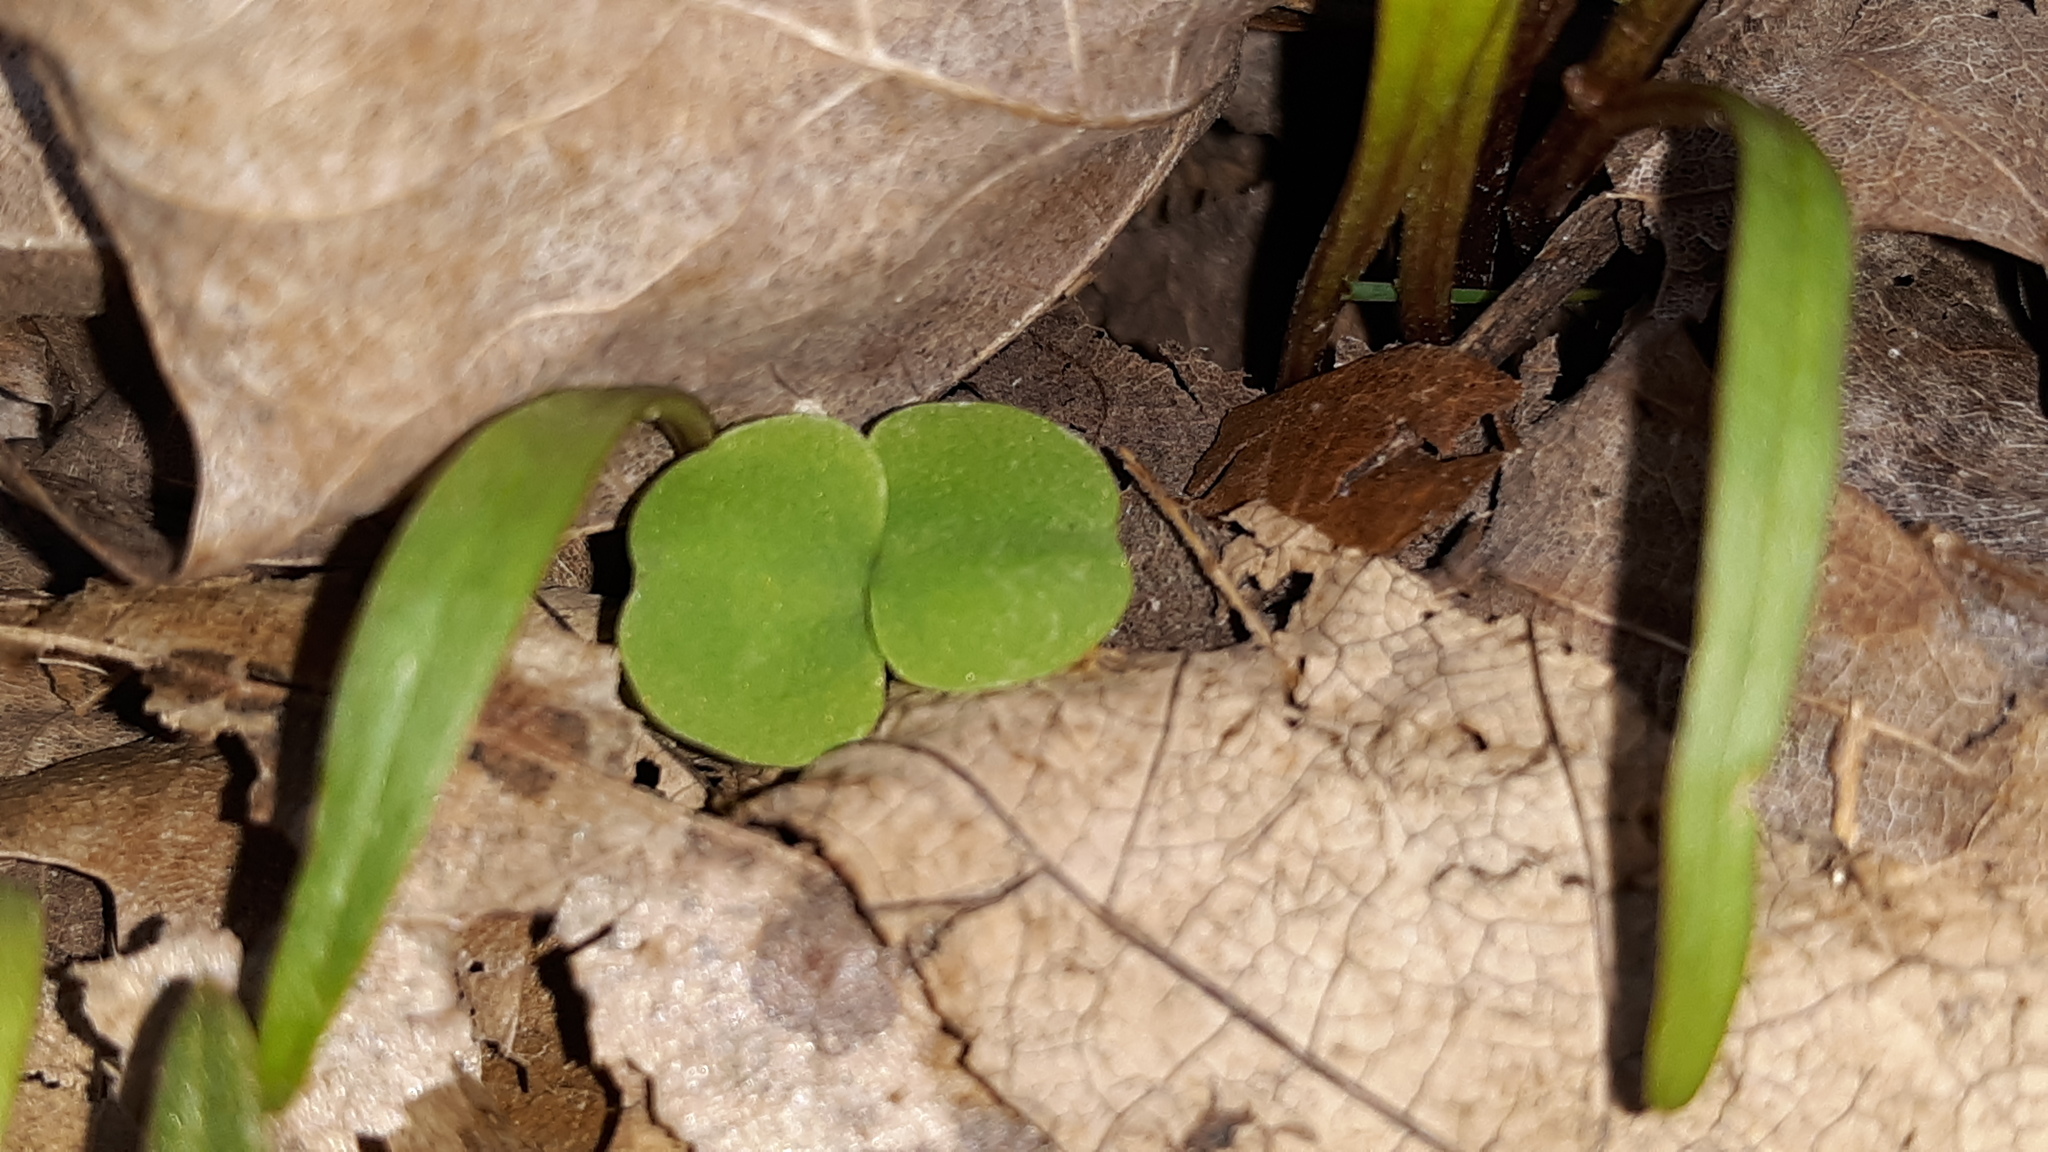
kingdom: Plantae
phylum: Tracheophyta
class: Magnoliopsida
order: Ericales
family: Balsaminaceae
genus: Impatiens
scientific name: Impatiens
